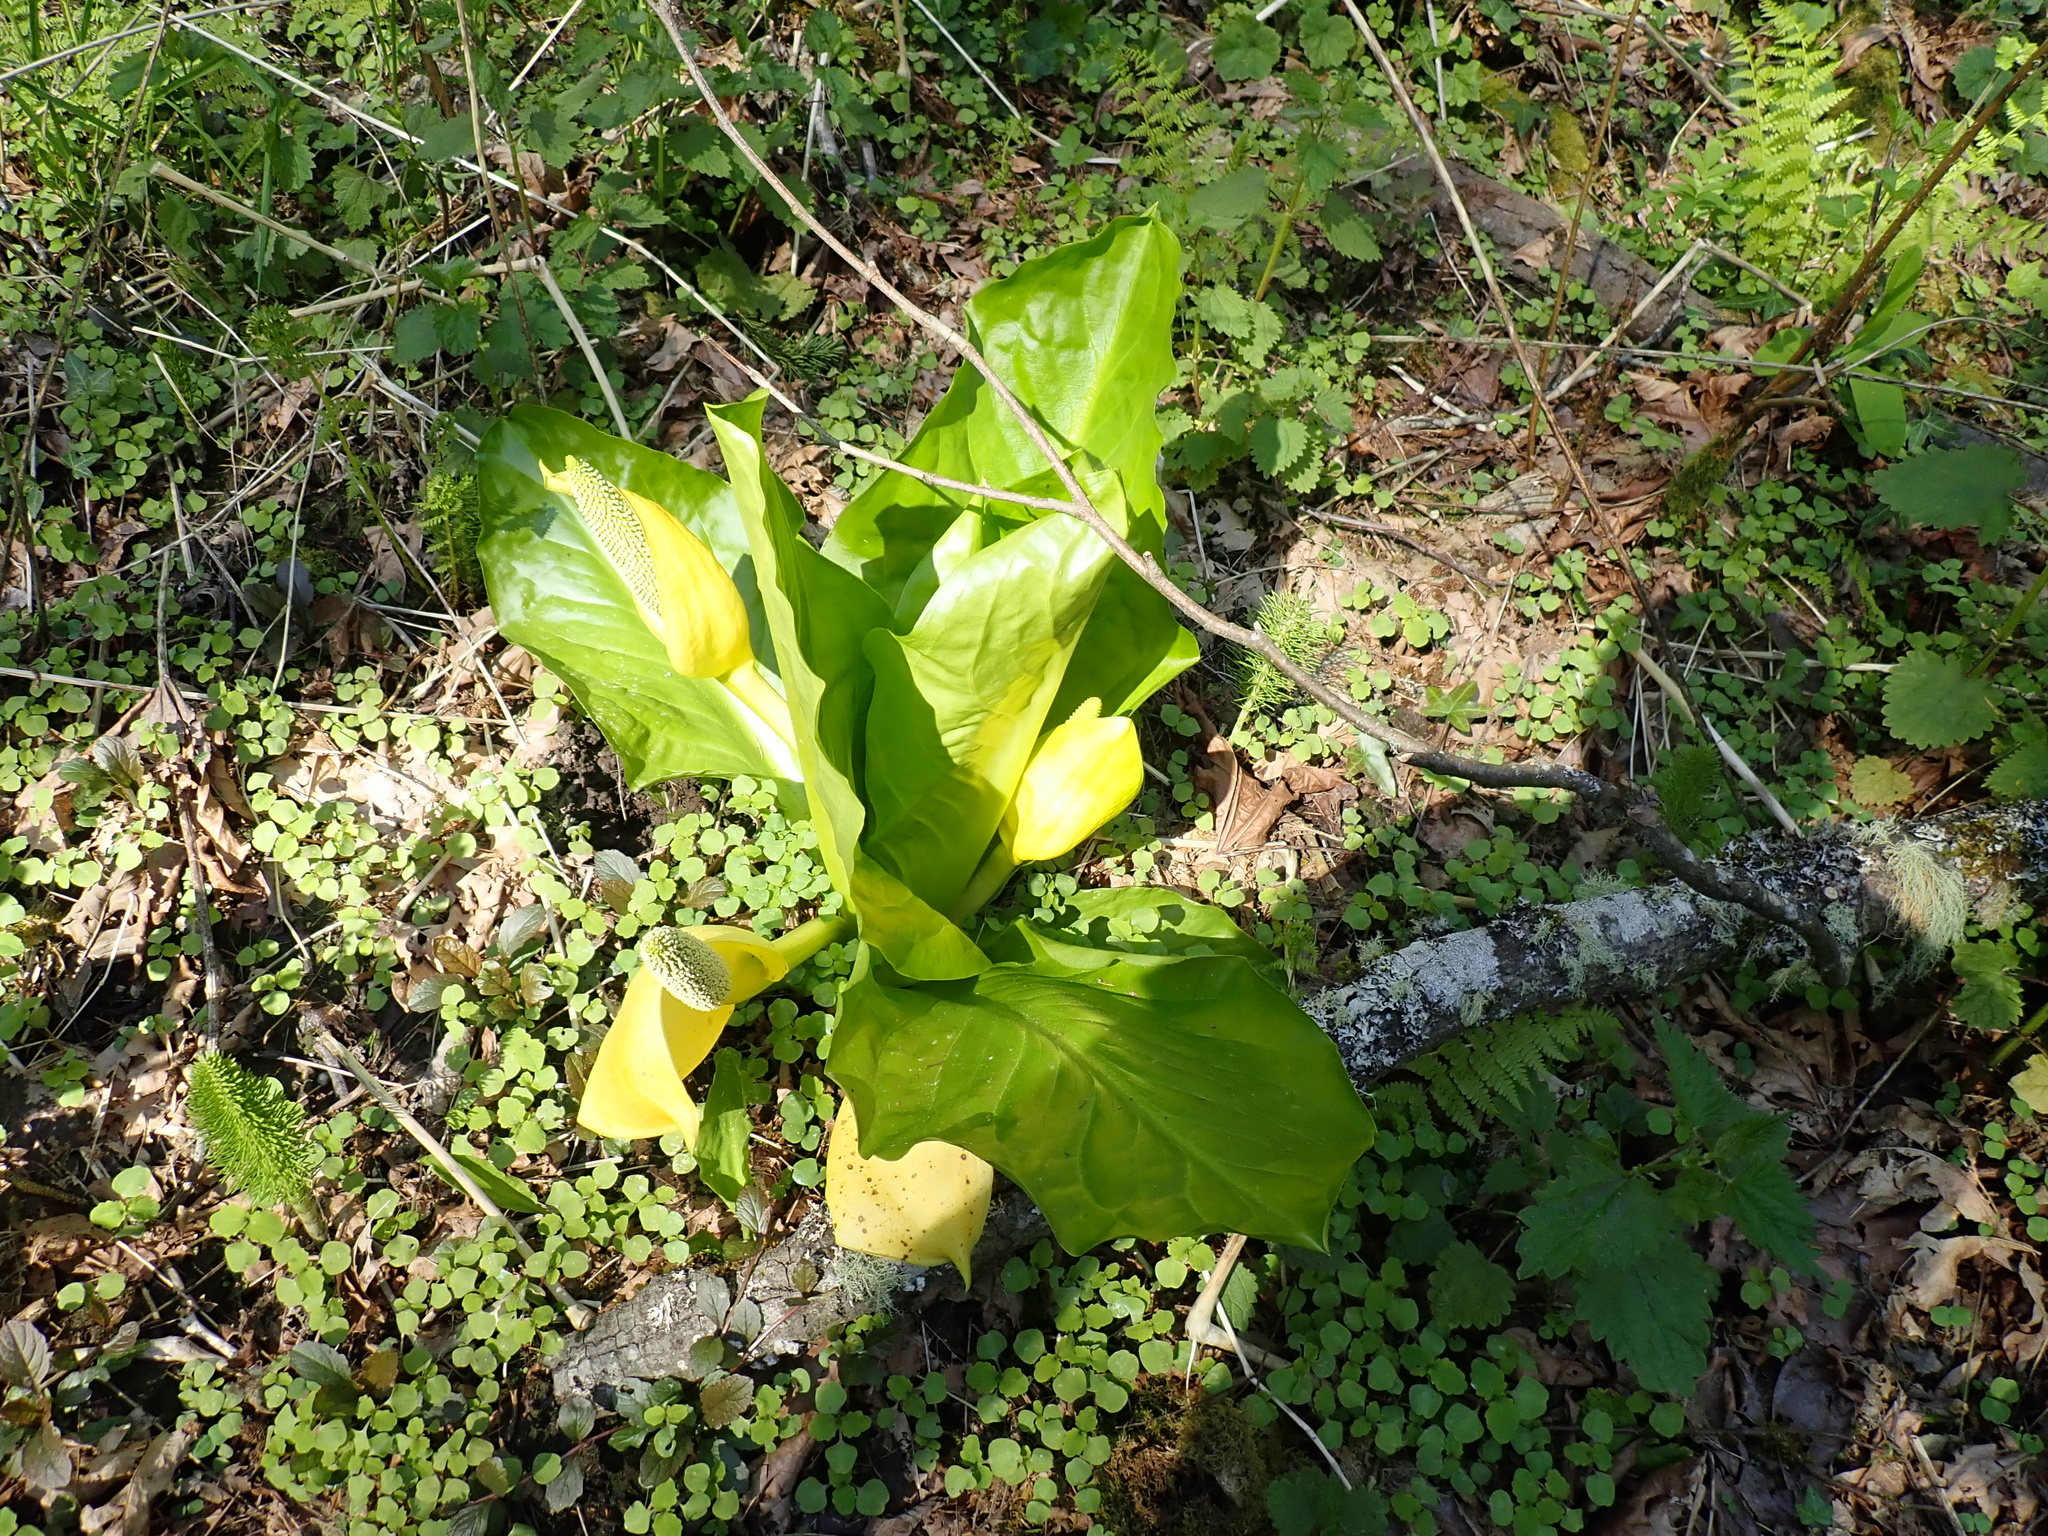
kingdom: Plantae
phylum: Tracheophyta
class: Liliopsida
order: Alismatales
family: Araceae
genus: Lysichiton
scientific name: Lysichiton americanus
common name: American skunk cabbage
